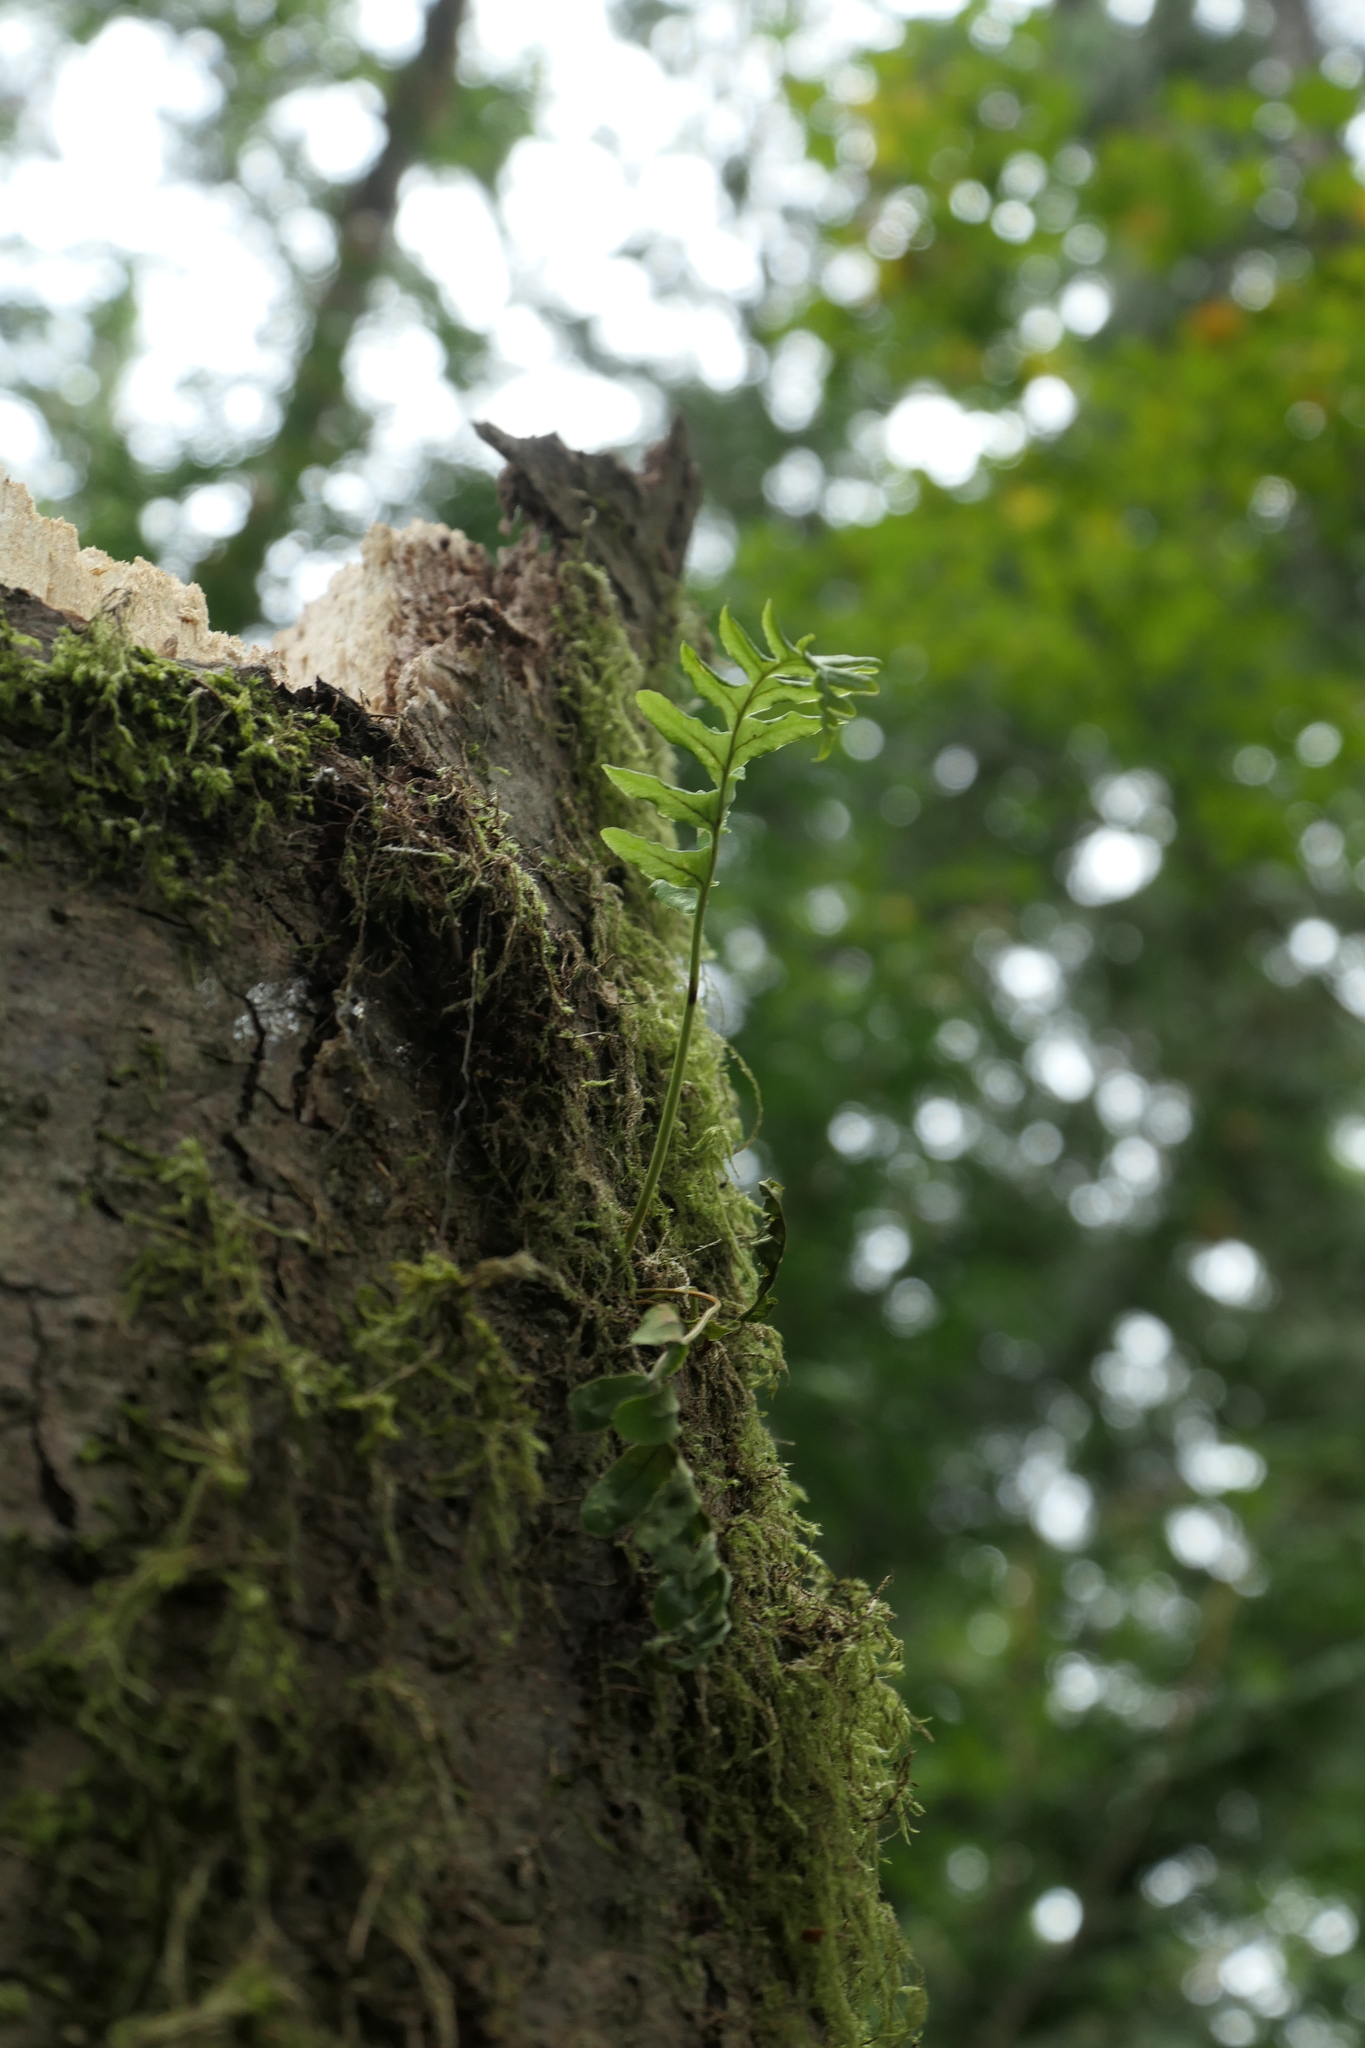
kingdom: Plantae
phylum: Tracheophyta
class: Polypodiopsida
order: Polypodiales
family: Polypodiaceae
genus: Polypodium
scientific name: Polypodium glycyrrhiza
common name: Licorice fern
